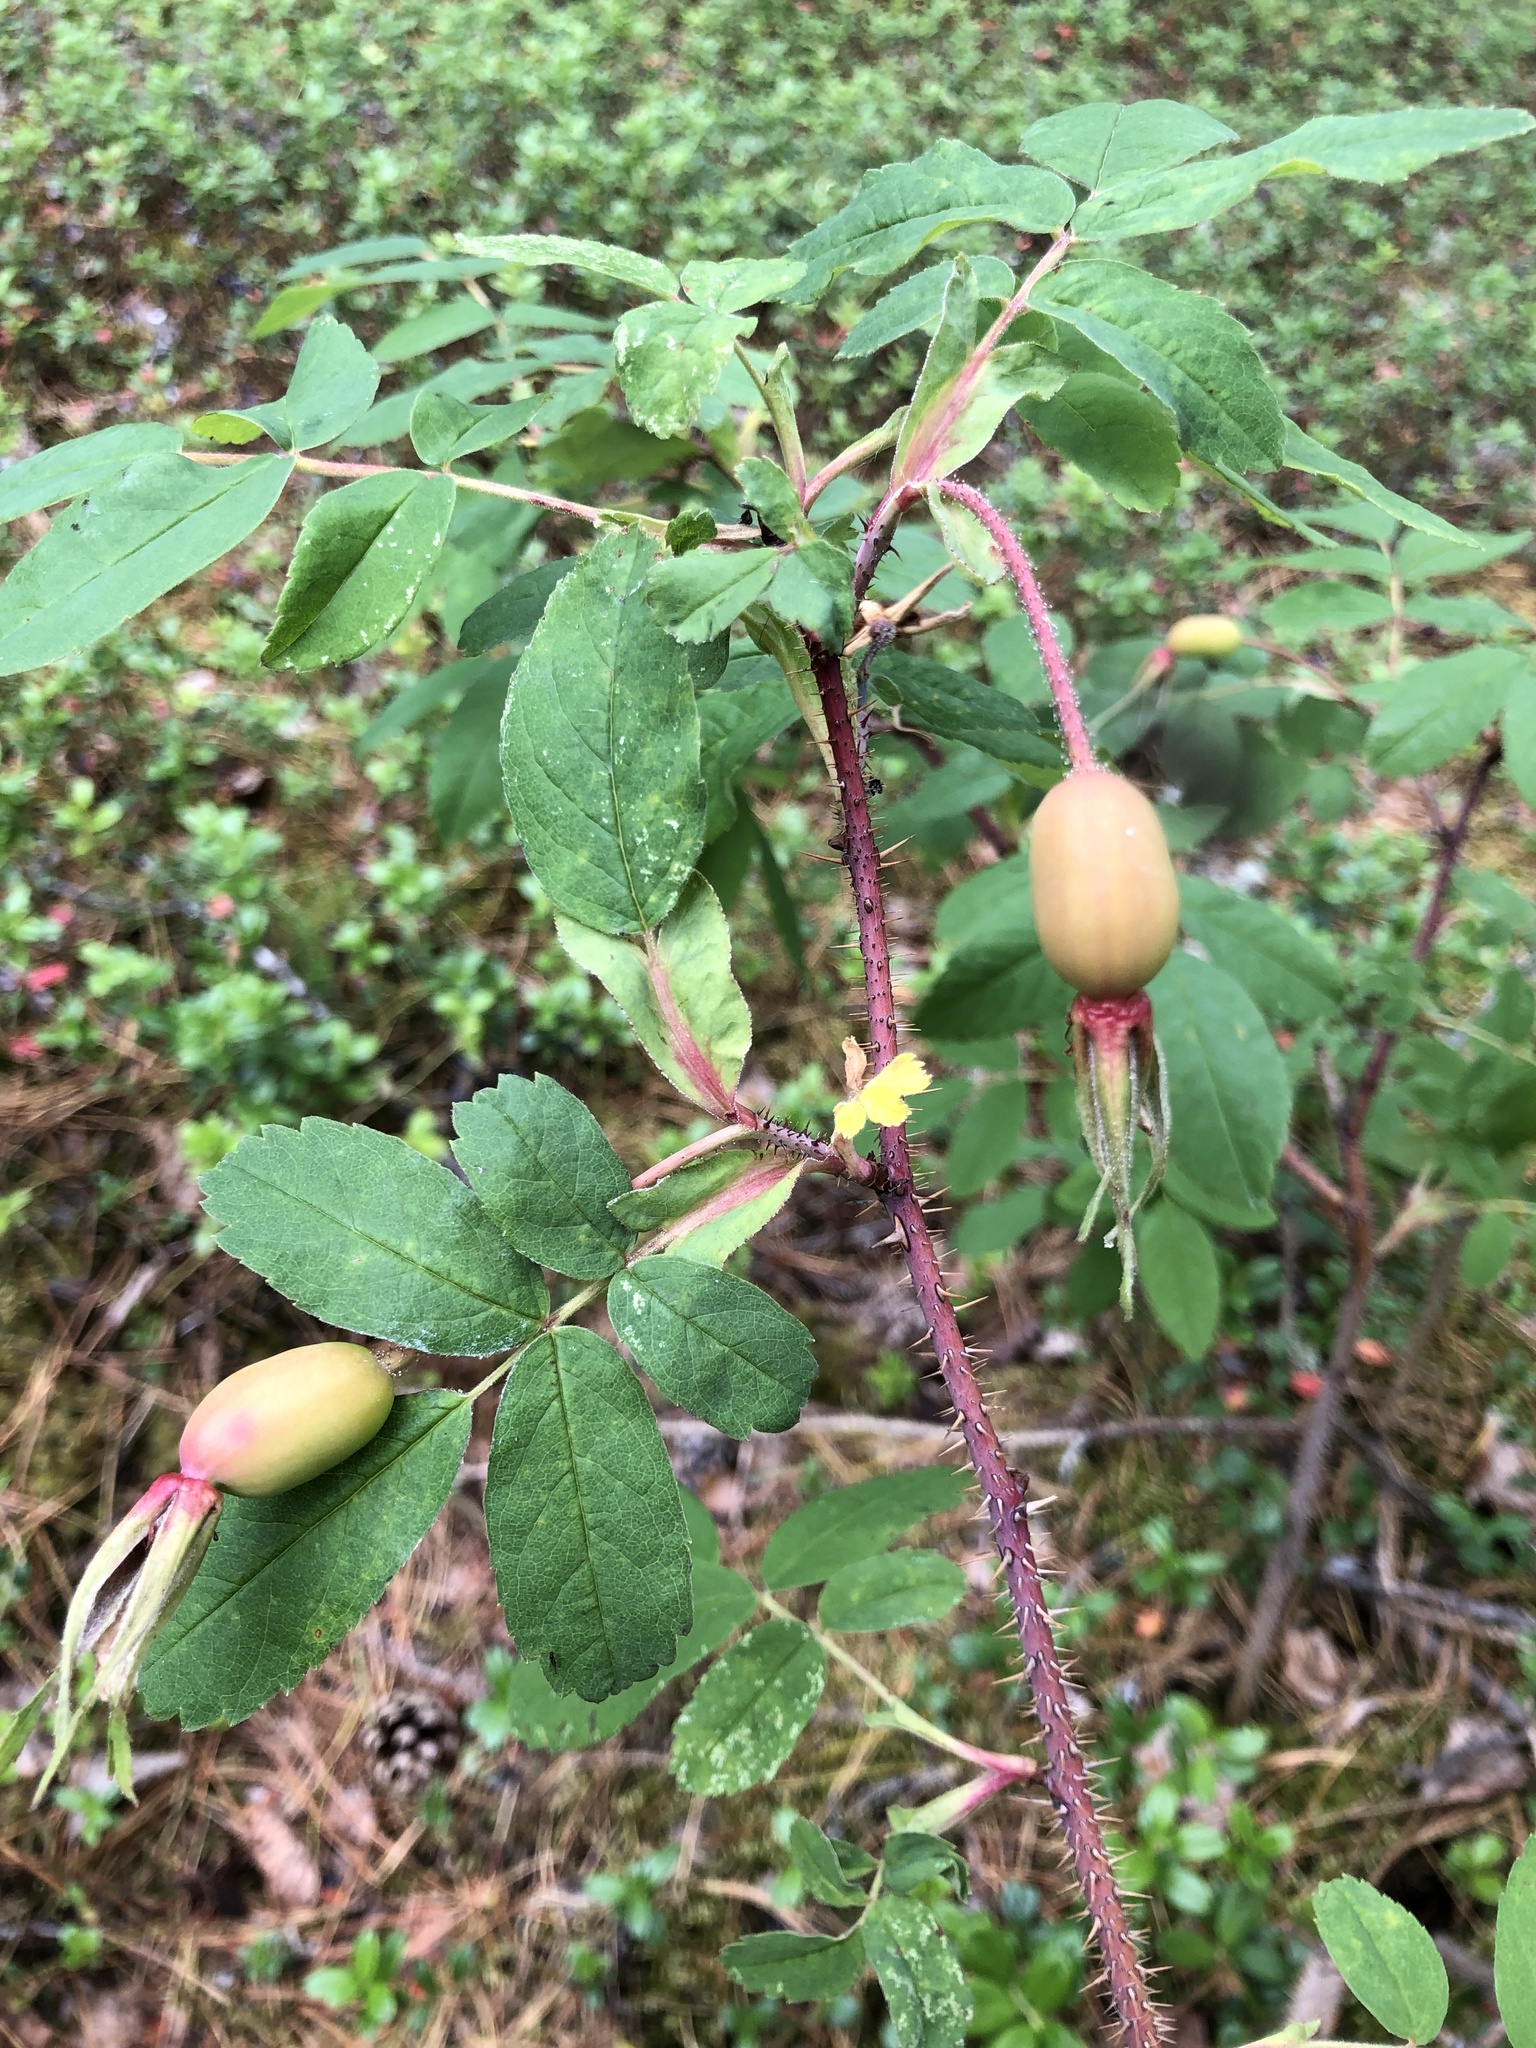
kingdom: Plantae
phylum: Tracheophyta
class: Magnoliopsida
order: Rosales
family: Rosaceae
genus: Rosa
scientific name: Rosa acicularis
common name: Prickly rose
